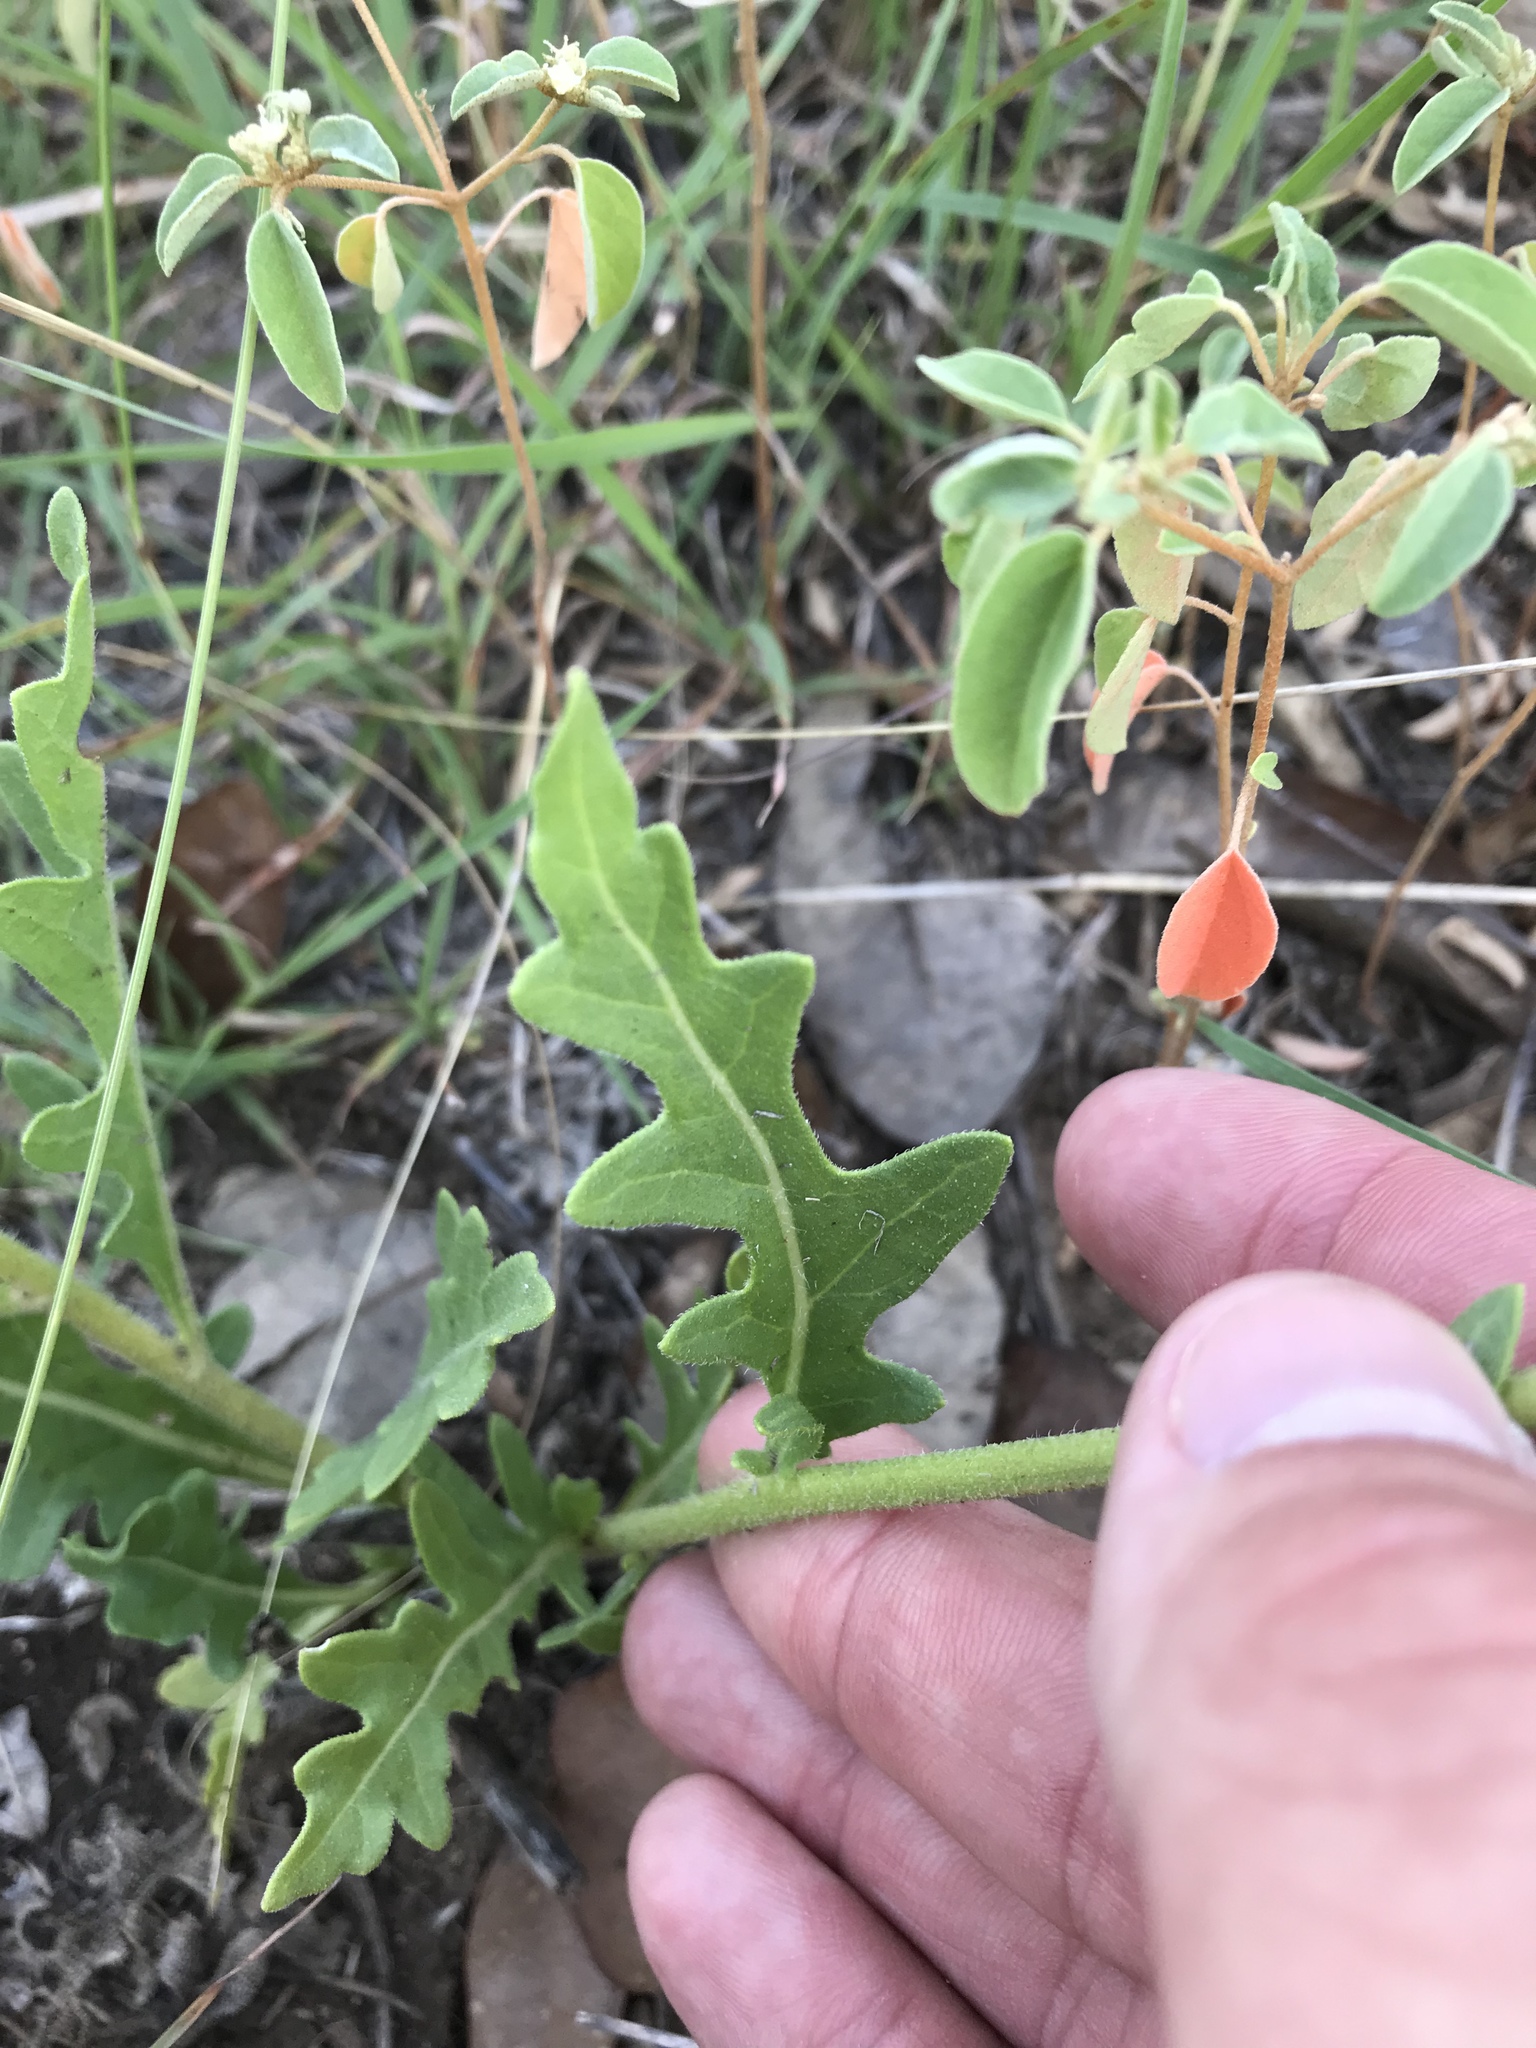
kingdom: Plantae
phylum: Tracheophyta
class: Magnoliopsida
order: Asterales
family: Asteraceae
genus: Engelmannia
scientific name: Engelmannia peristenia
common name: Engelmann's daisy
